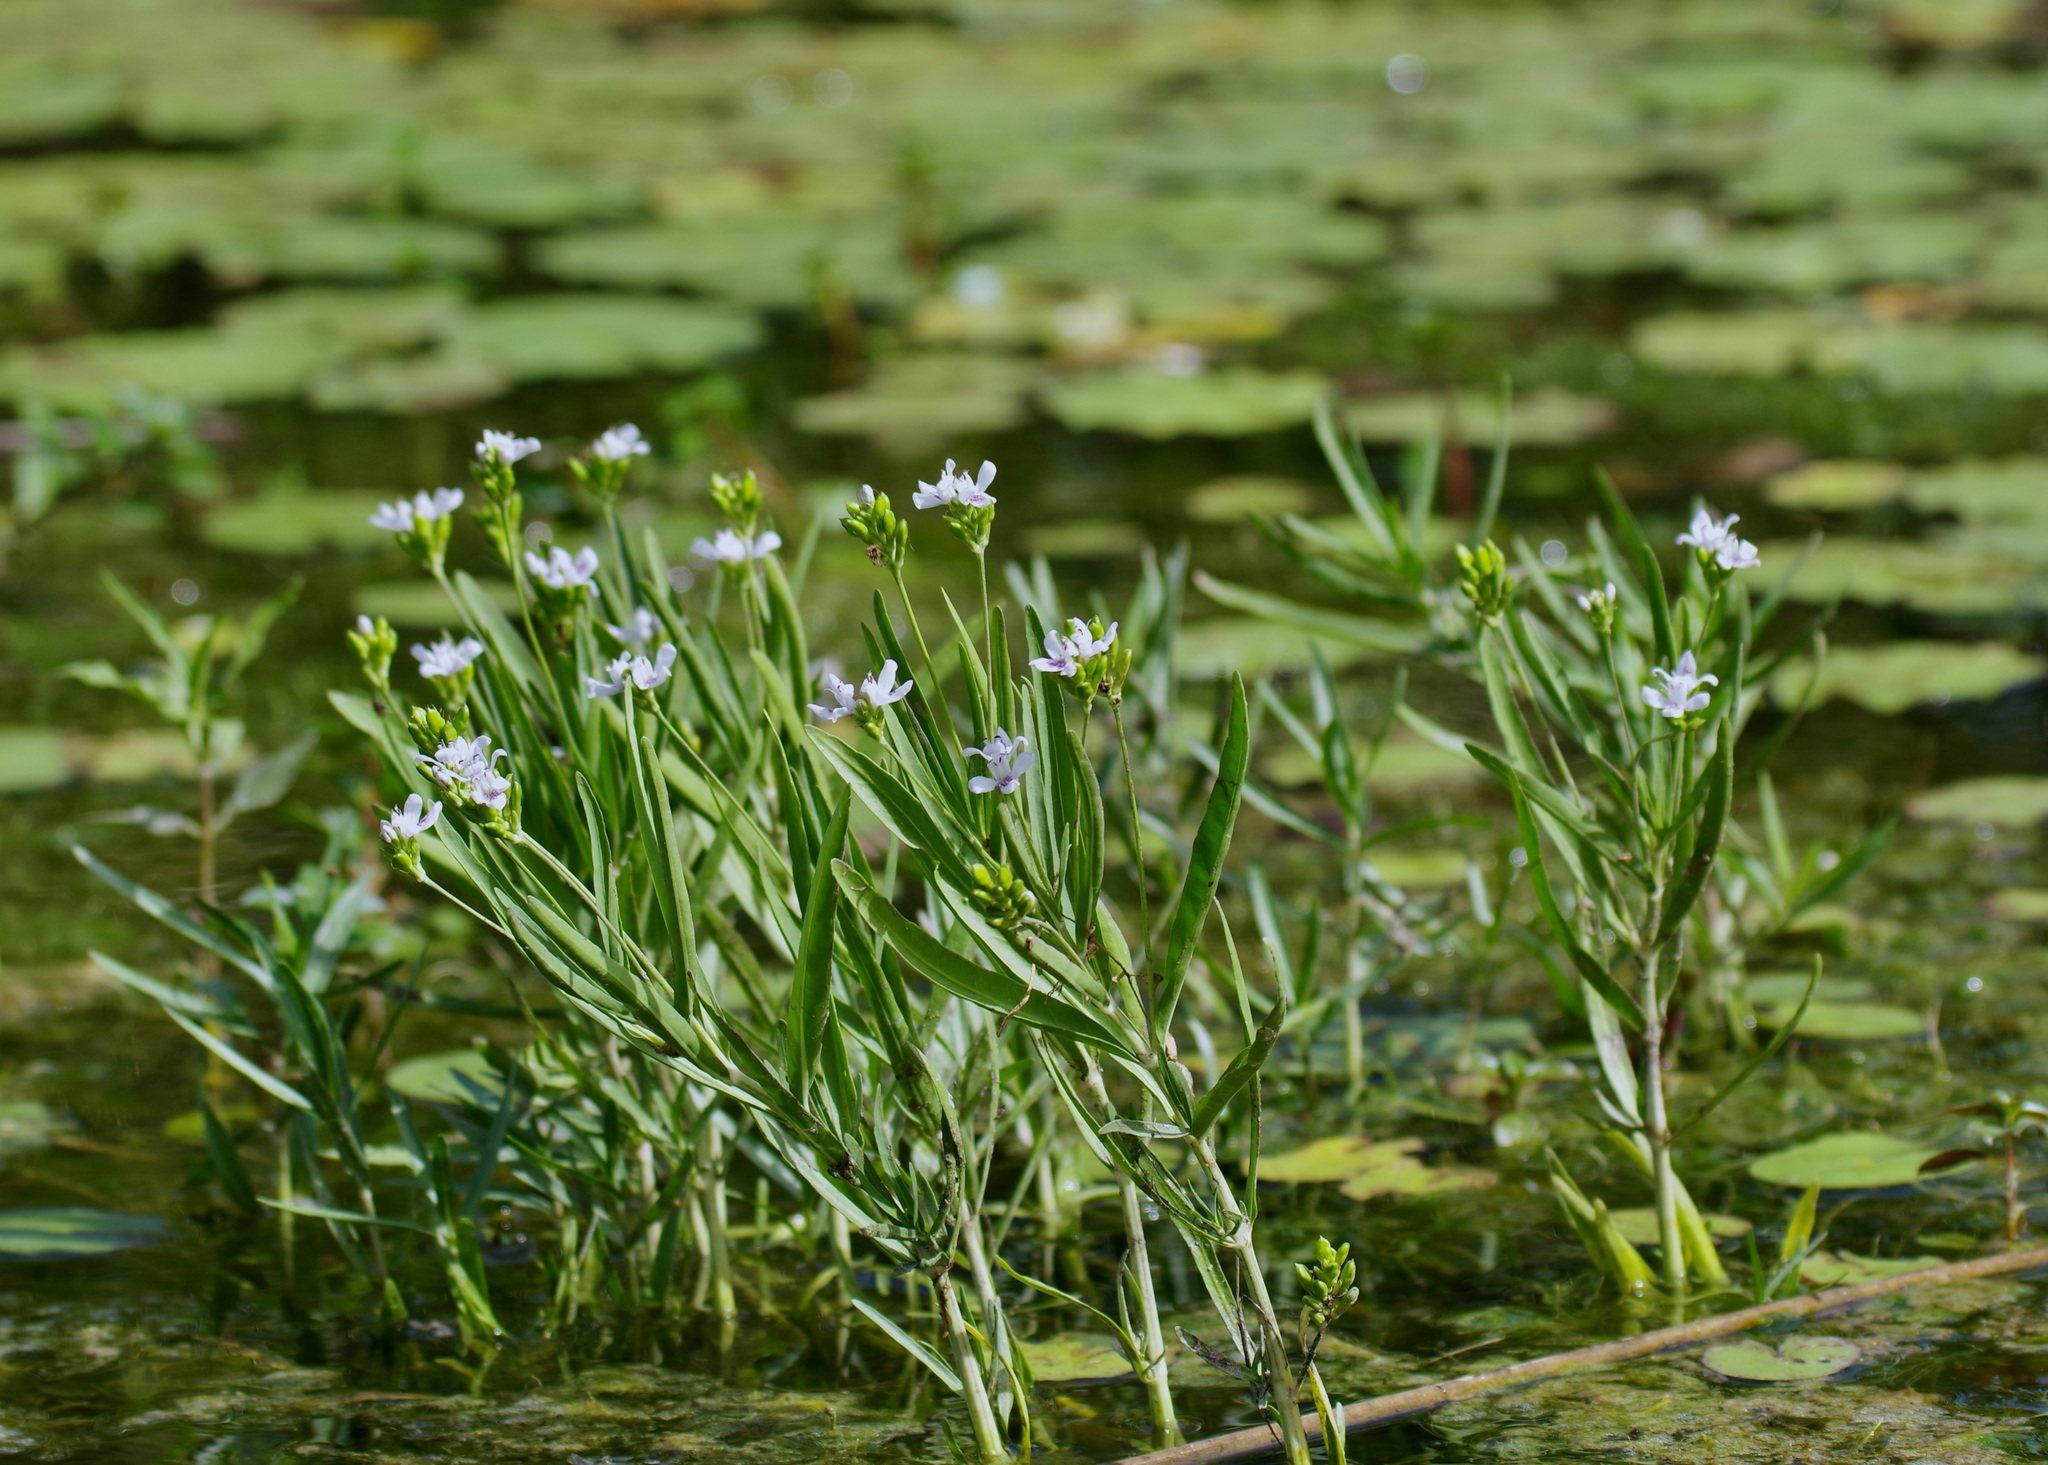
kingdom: Plantae
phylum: Tracheophyta
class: Magnoliopsida
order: Lamiales
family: Acanthaceae
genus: Dianthera
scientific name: Dianthera americana
